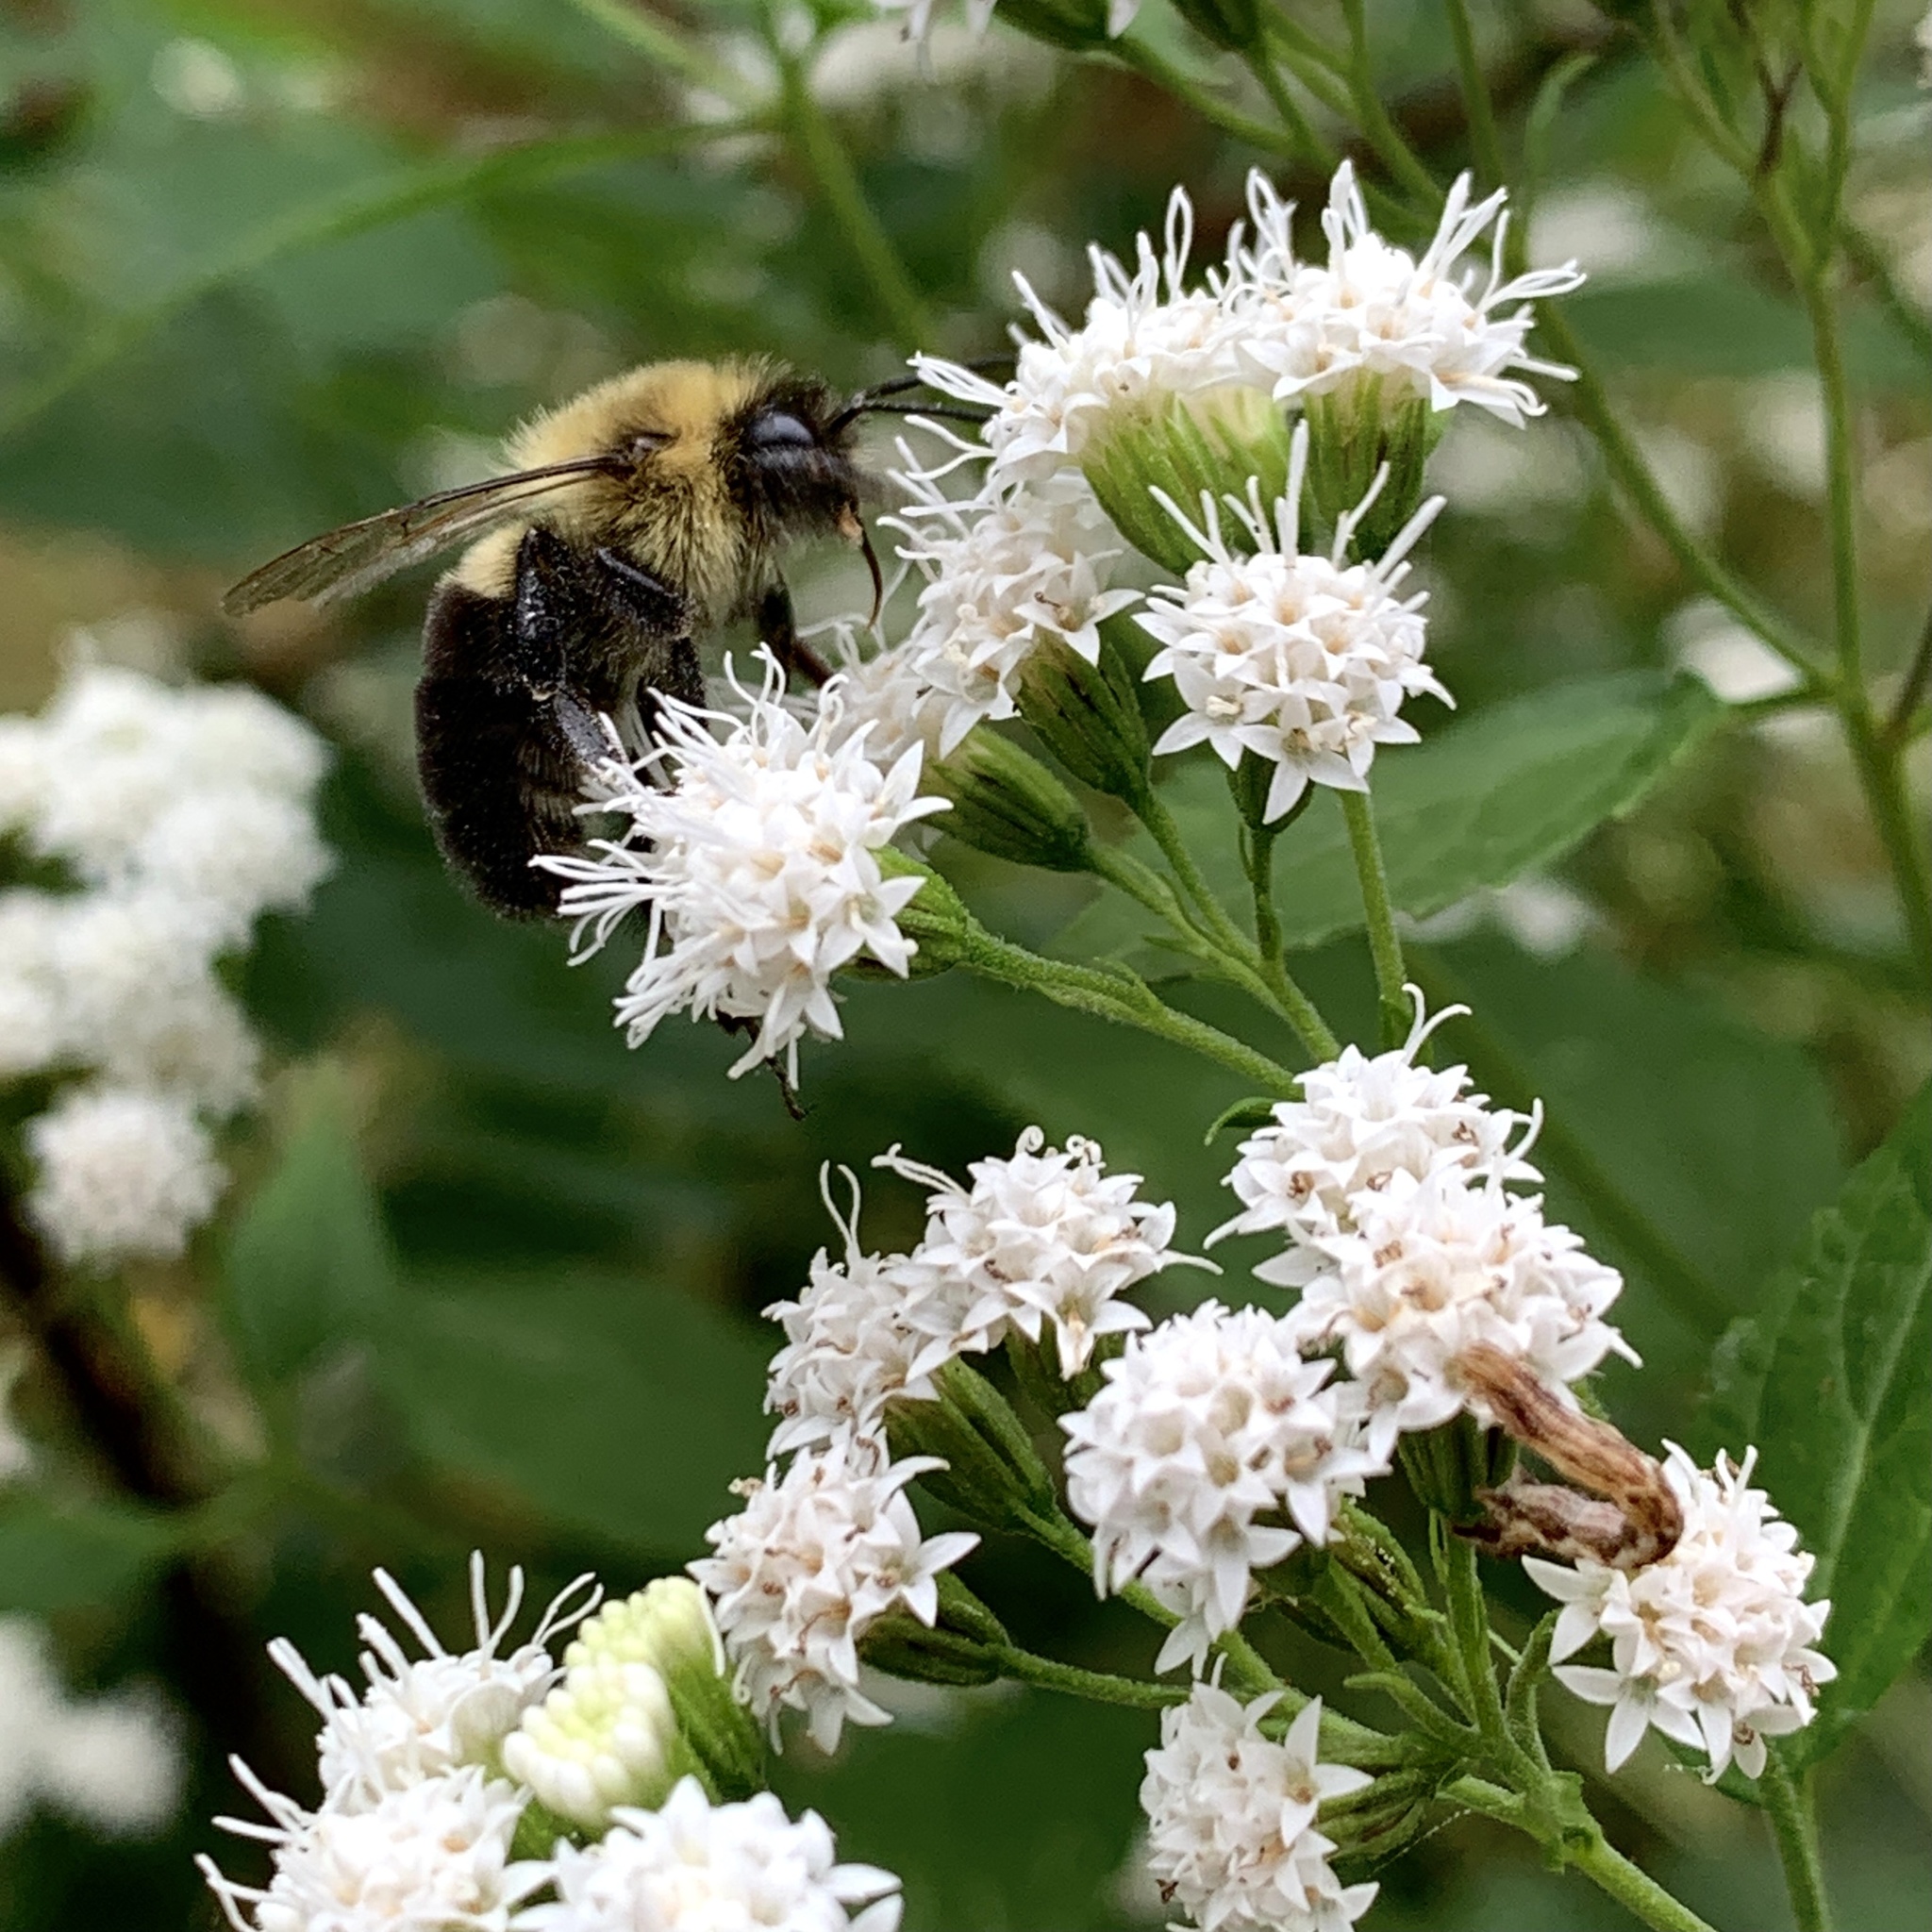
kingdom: Plantae
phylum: Tracheophyta
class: Magnoliopsida
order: Asterales
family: Asteraceae
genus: Ageratina
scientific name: Ageratina altissima
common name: White snakeroot
